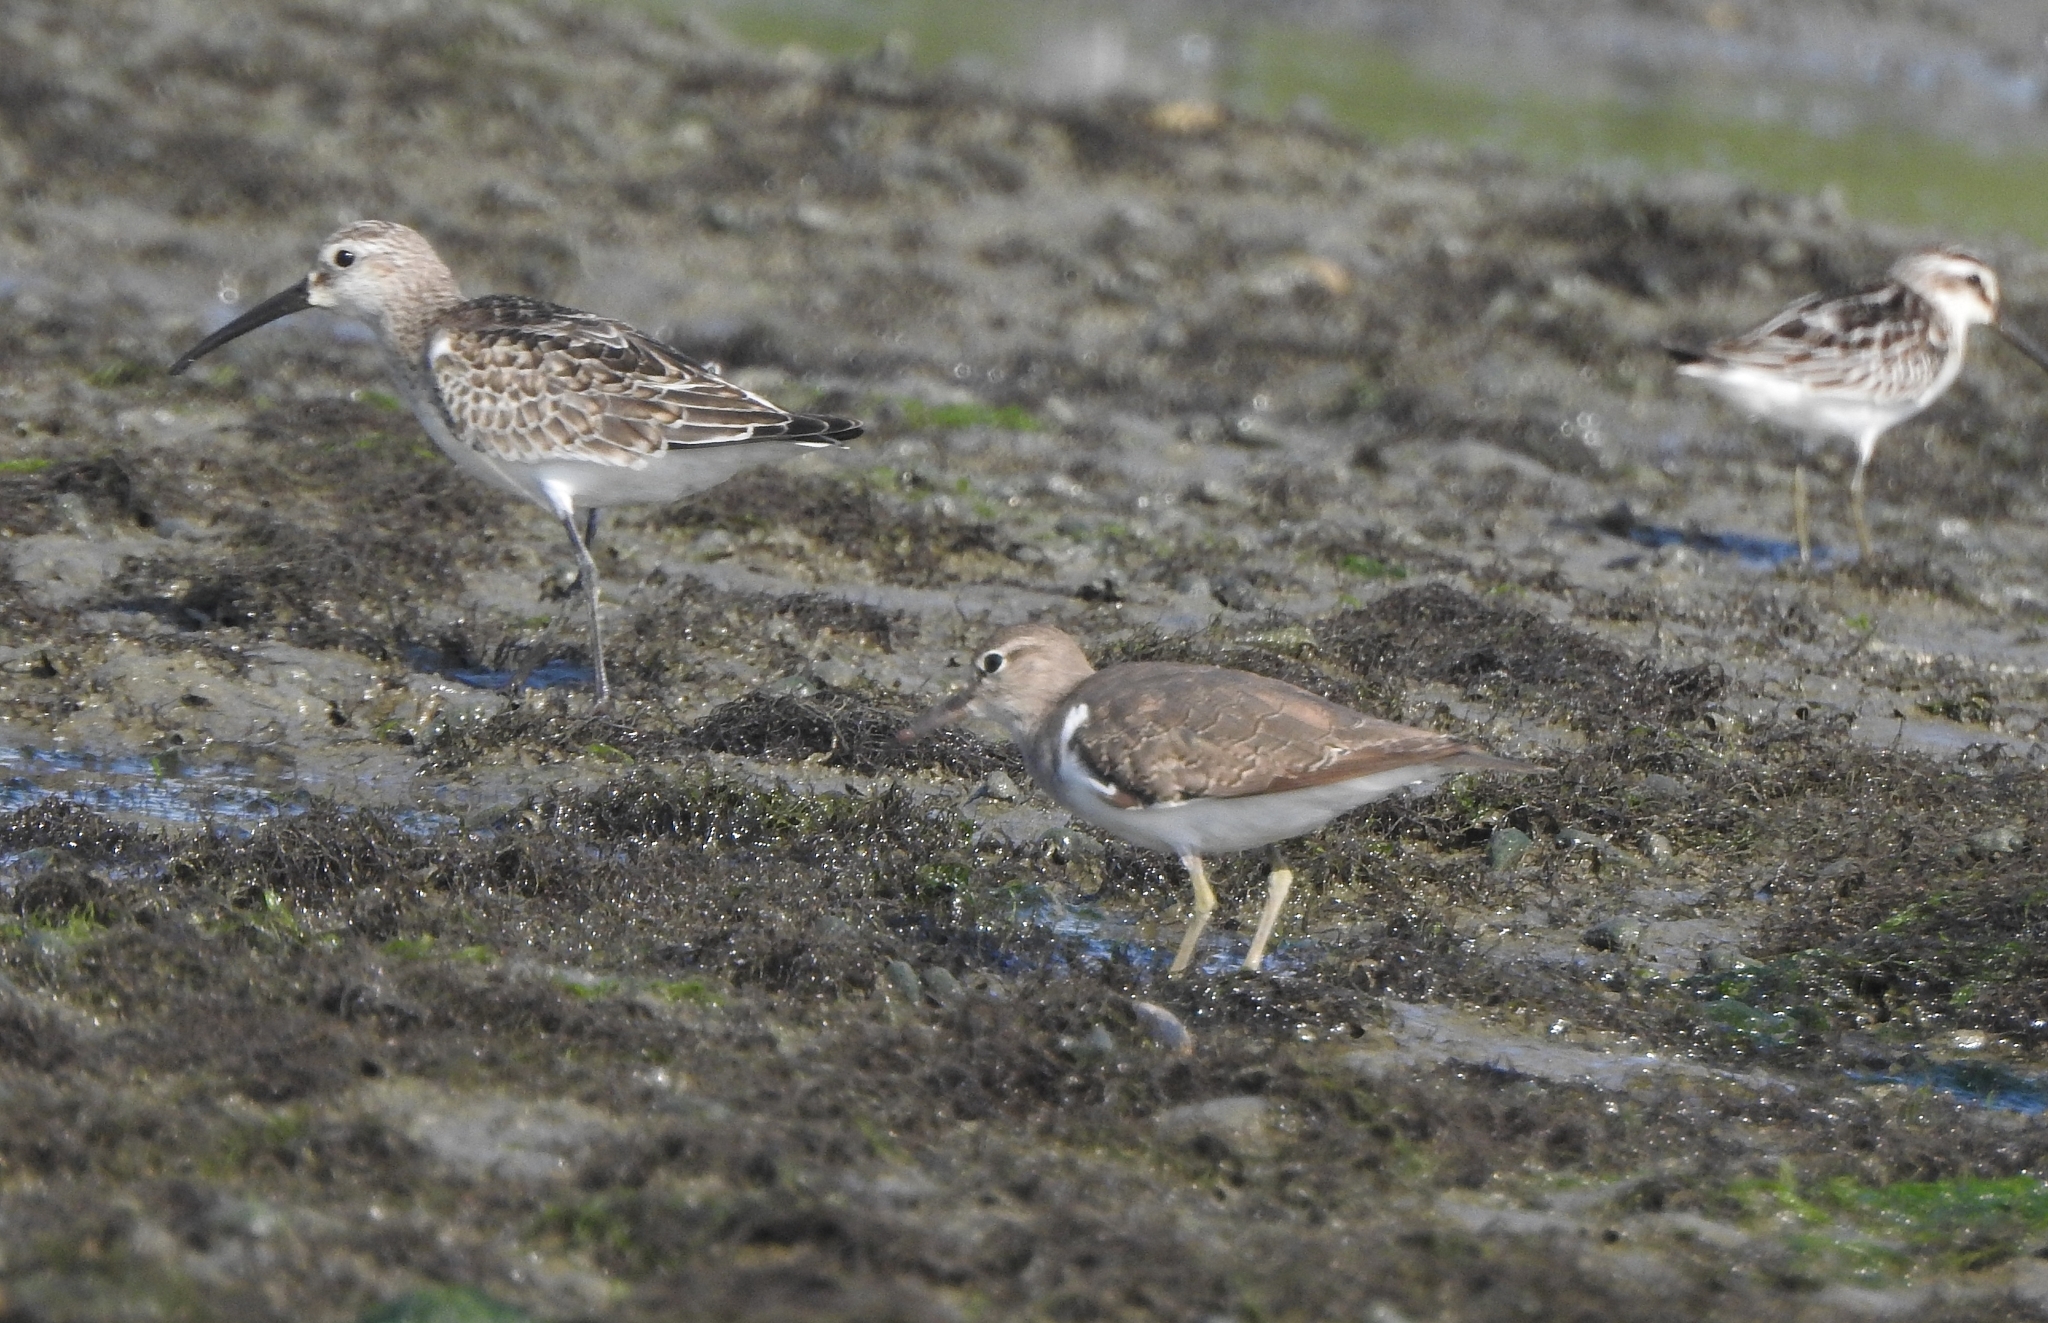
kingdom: Animalia
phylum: Chordata
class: Aves
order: Charadriiformes
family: Scolopacidae
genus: Actitis
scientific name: Actitis hypoleucos
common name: Common sandpiper
